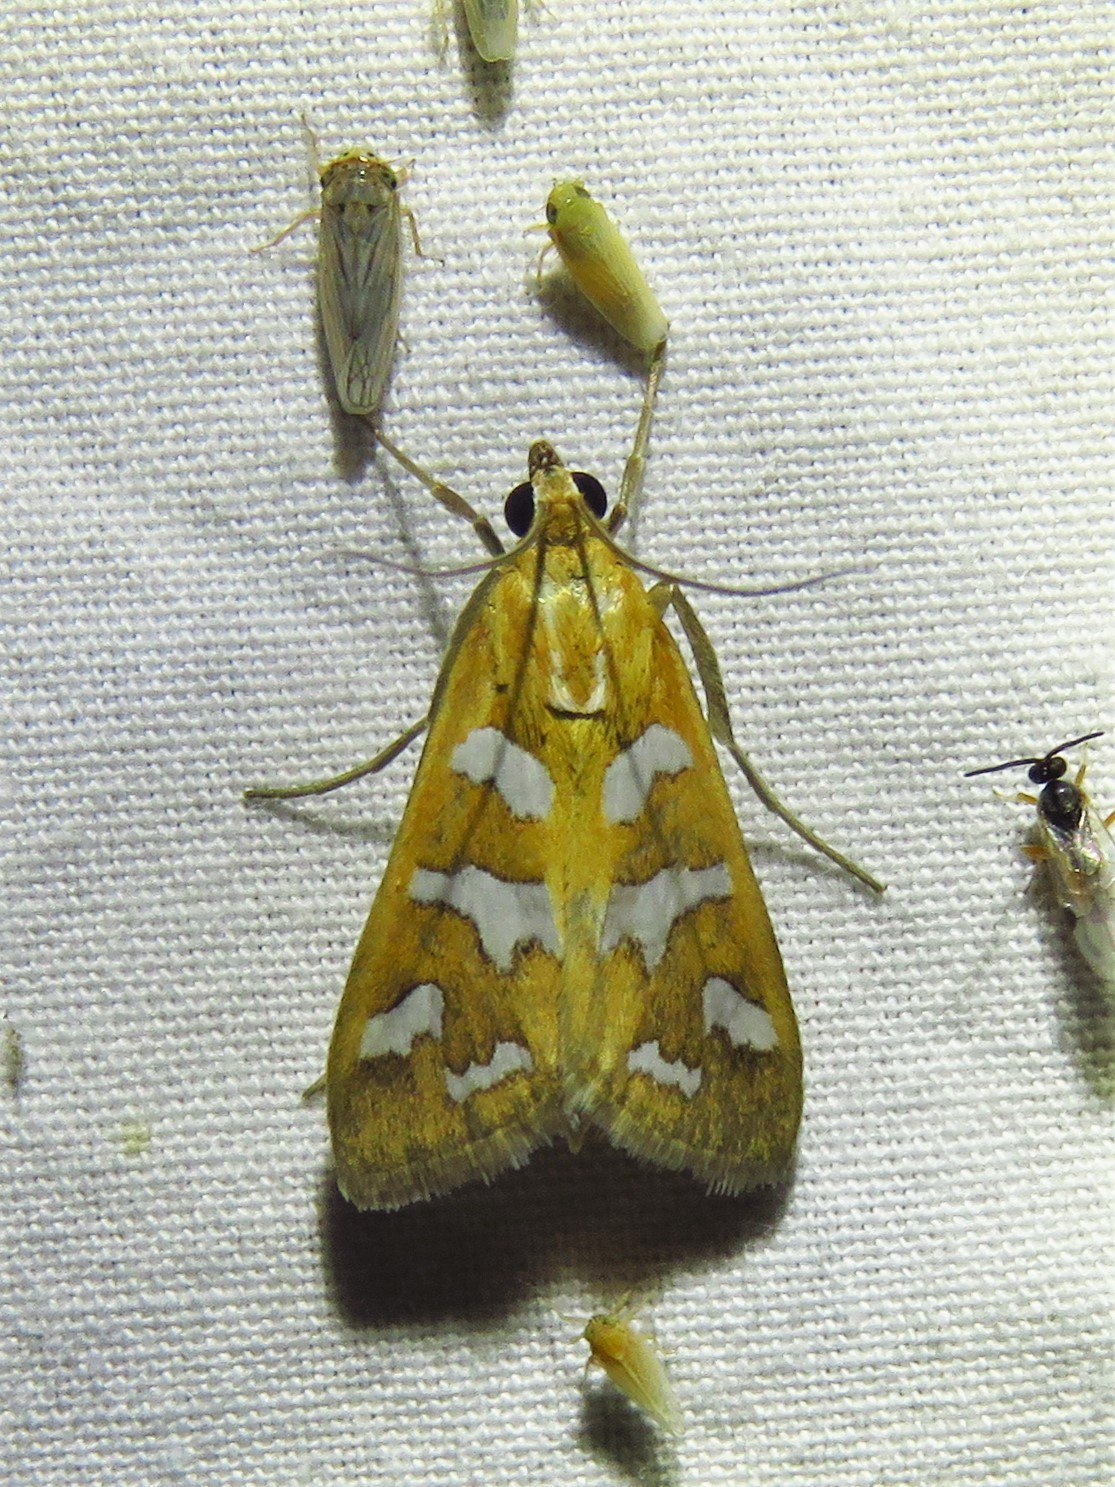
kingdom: Animalia
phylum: Arthropoda
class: Insecta
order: Lepidoptera
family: Crambidae
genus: Diastictis
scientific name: Diastictis fracturalis
